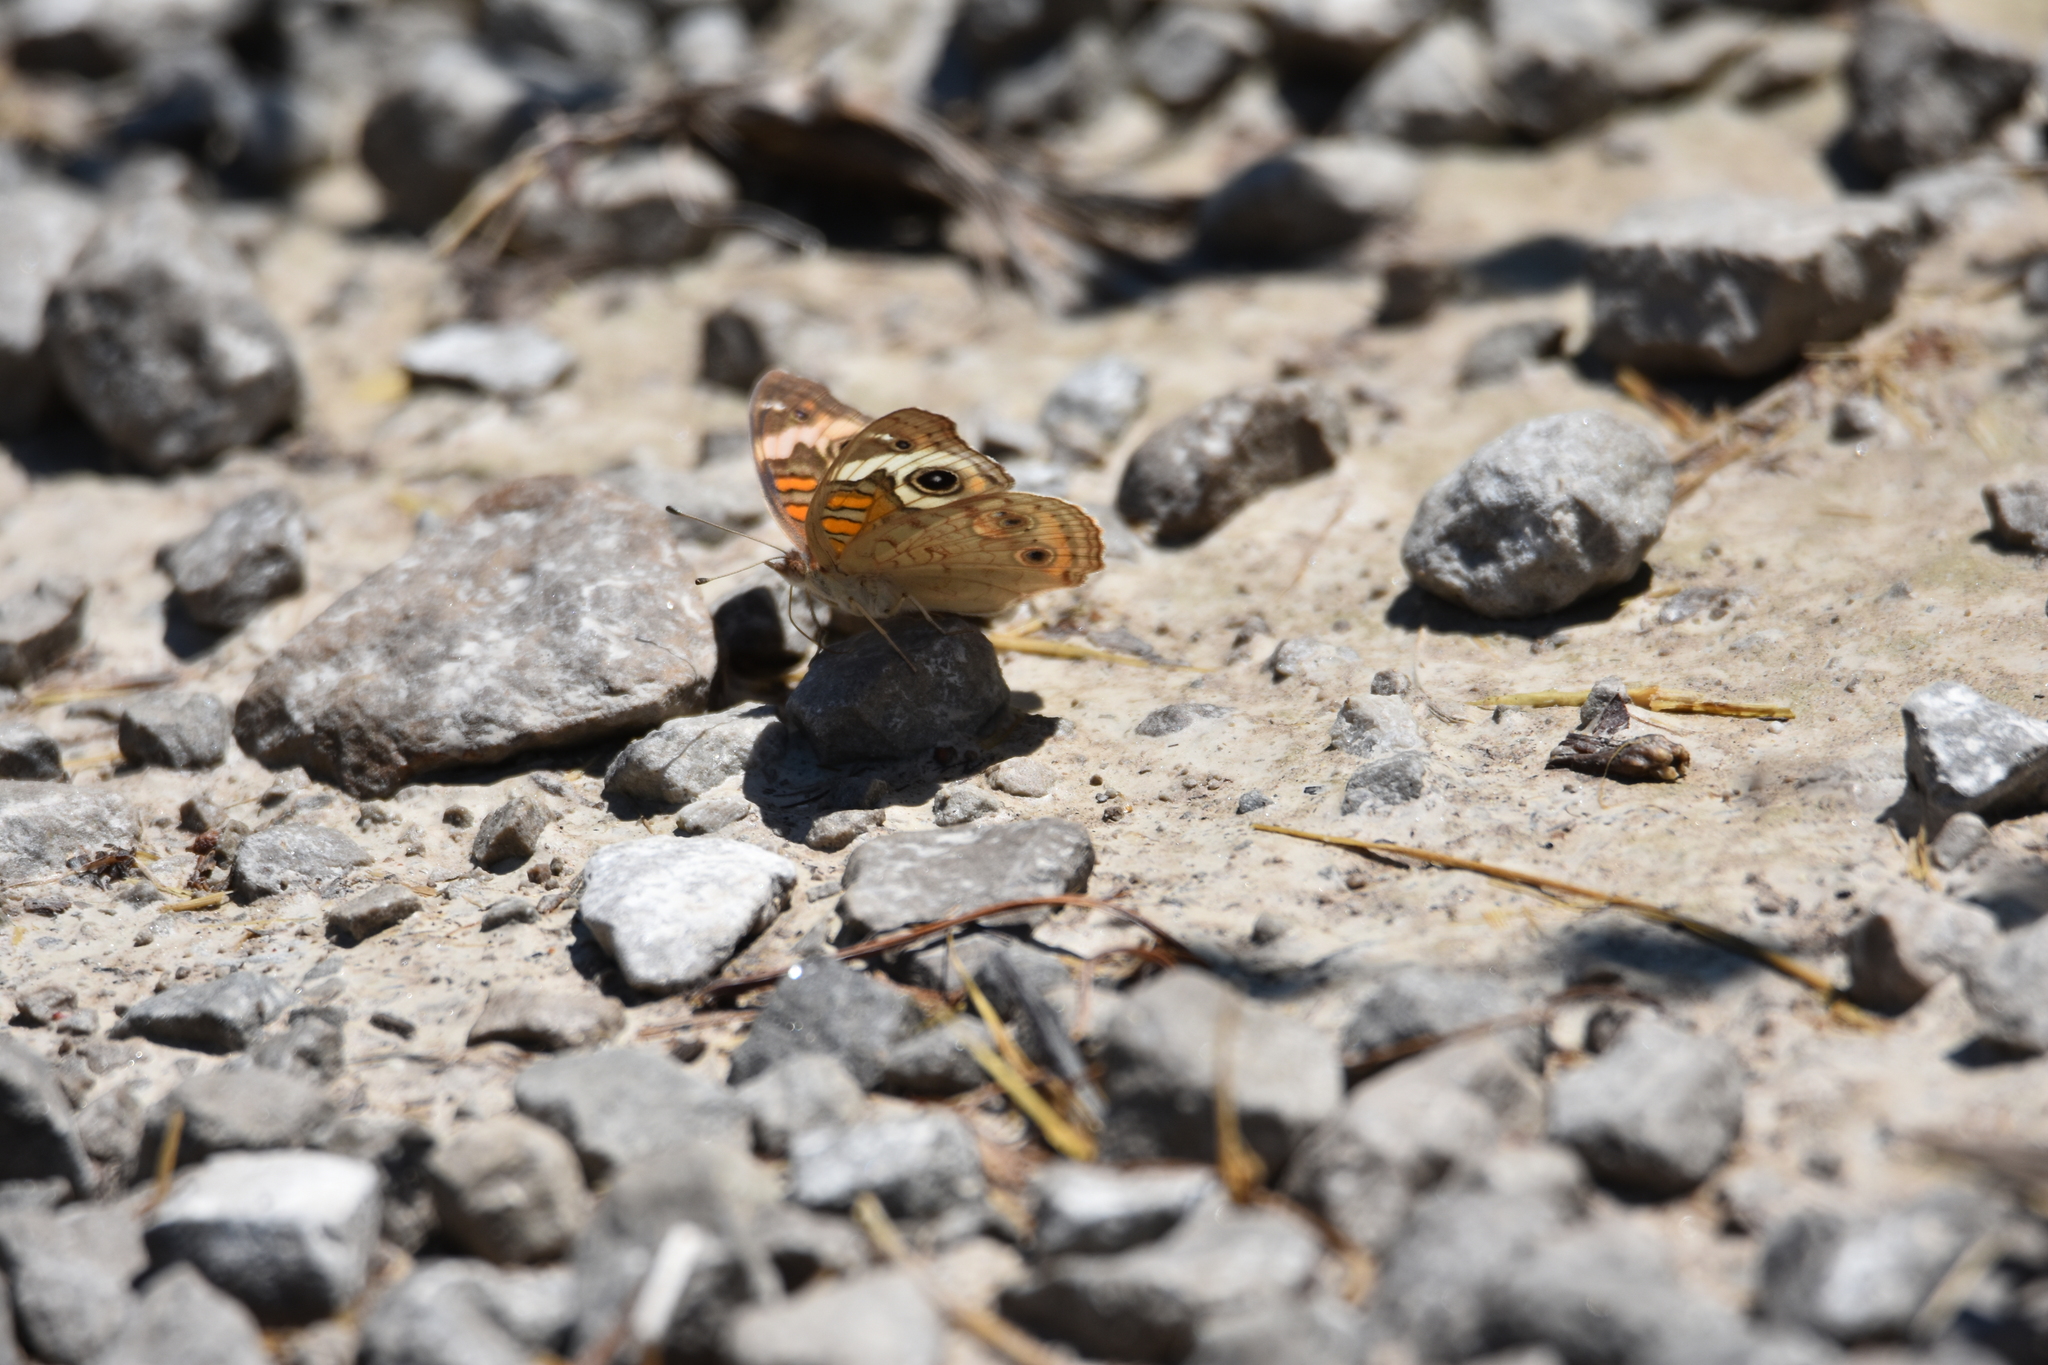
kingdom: Animalia
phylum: Arthropoda
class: Insecta
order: Lepidoptera
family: Nymphalidae
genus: Junonia
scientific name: Junonia coenia
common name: Common buckeye
